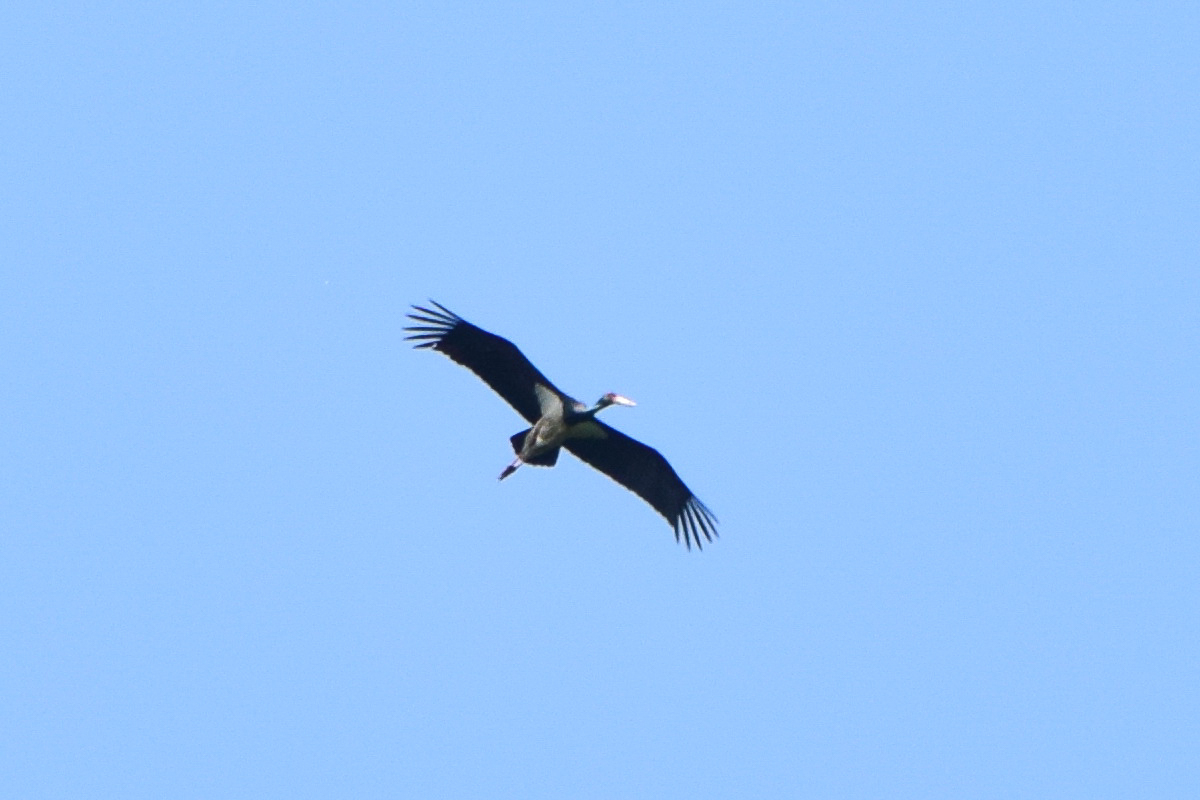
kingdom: Animalia
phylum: Chordata
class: Aves
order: Ciconiiformes
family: Ciconiidae
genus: Ciconia
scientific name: Ciconia nigra
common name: Black stork
